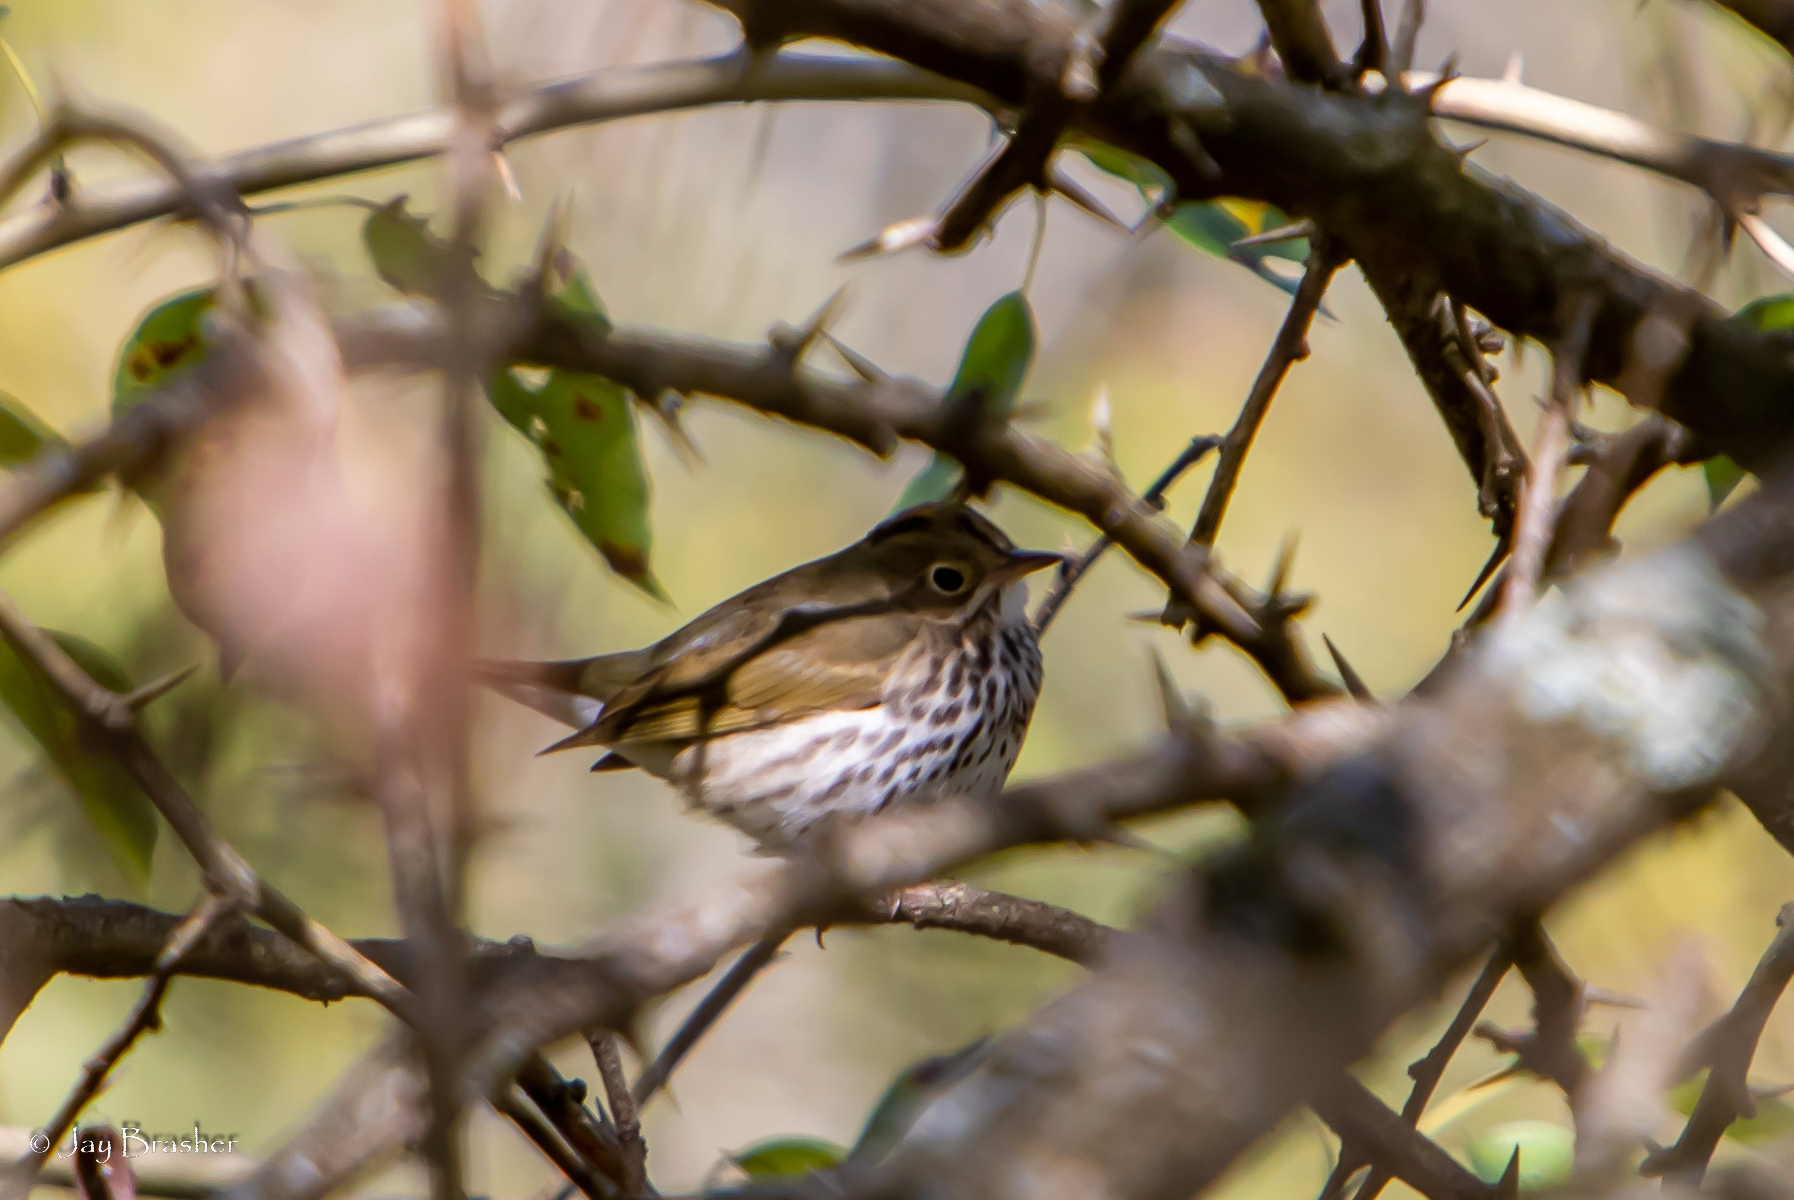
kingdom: Animalia
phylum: Chordata
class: Aves
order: Passeriformes
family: Parulidae
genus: Seiurus
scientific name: Seiurus aurocapilla
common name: Ovenbird
